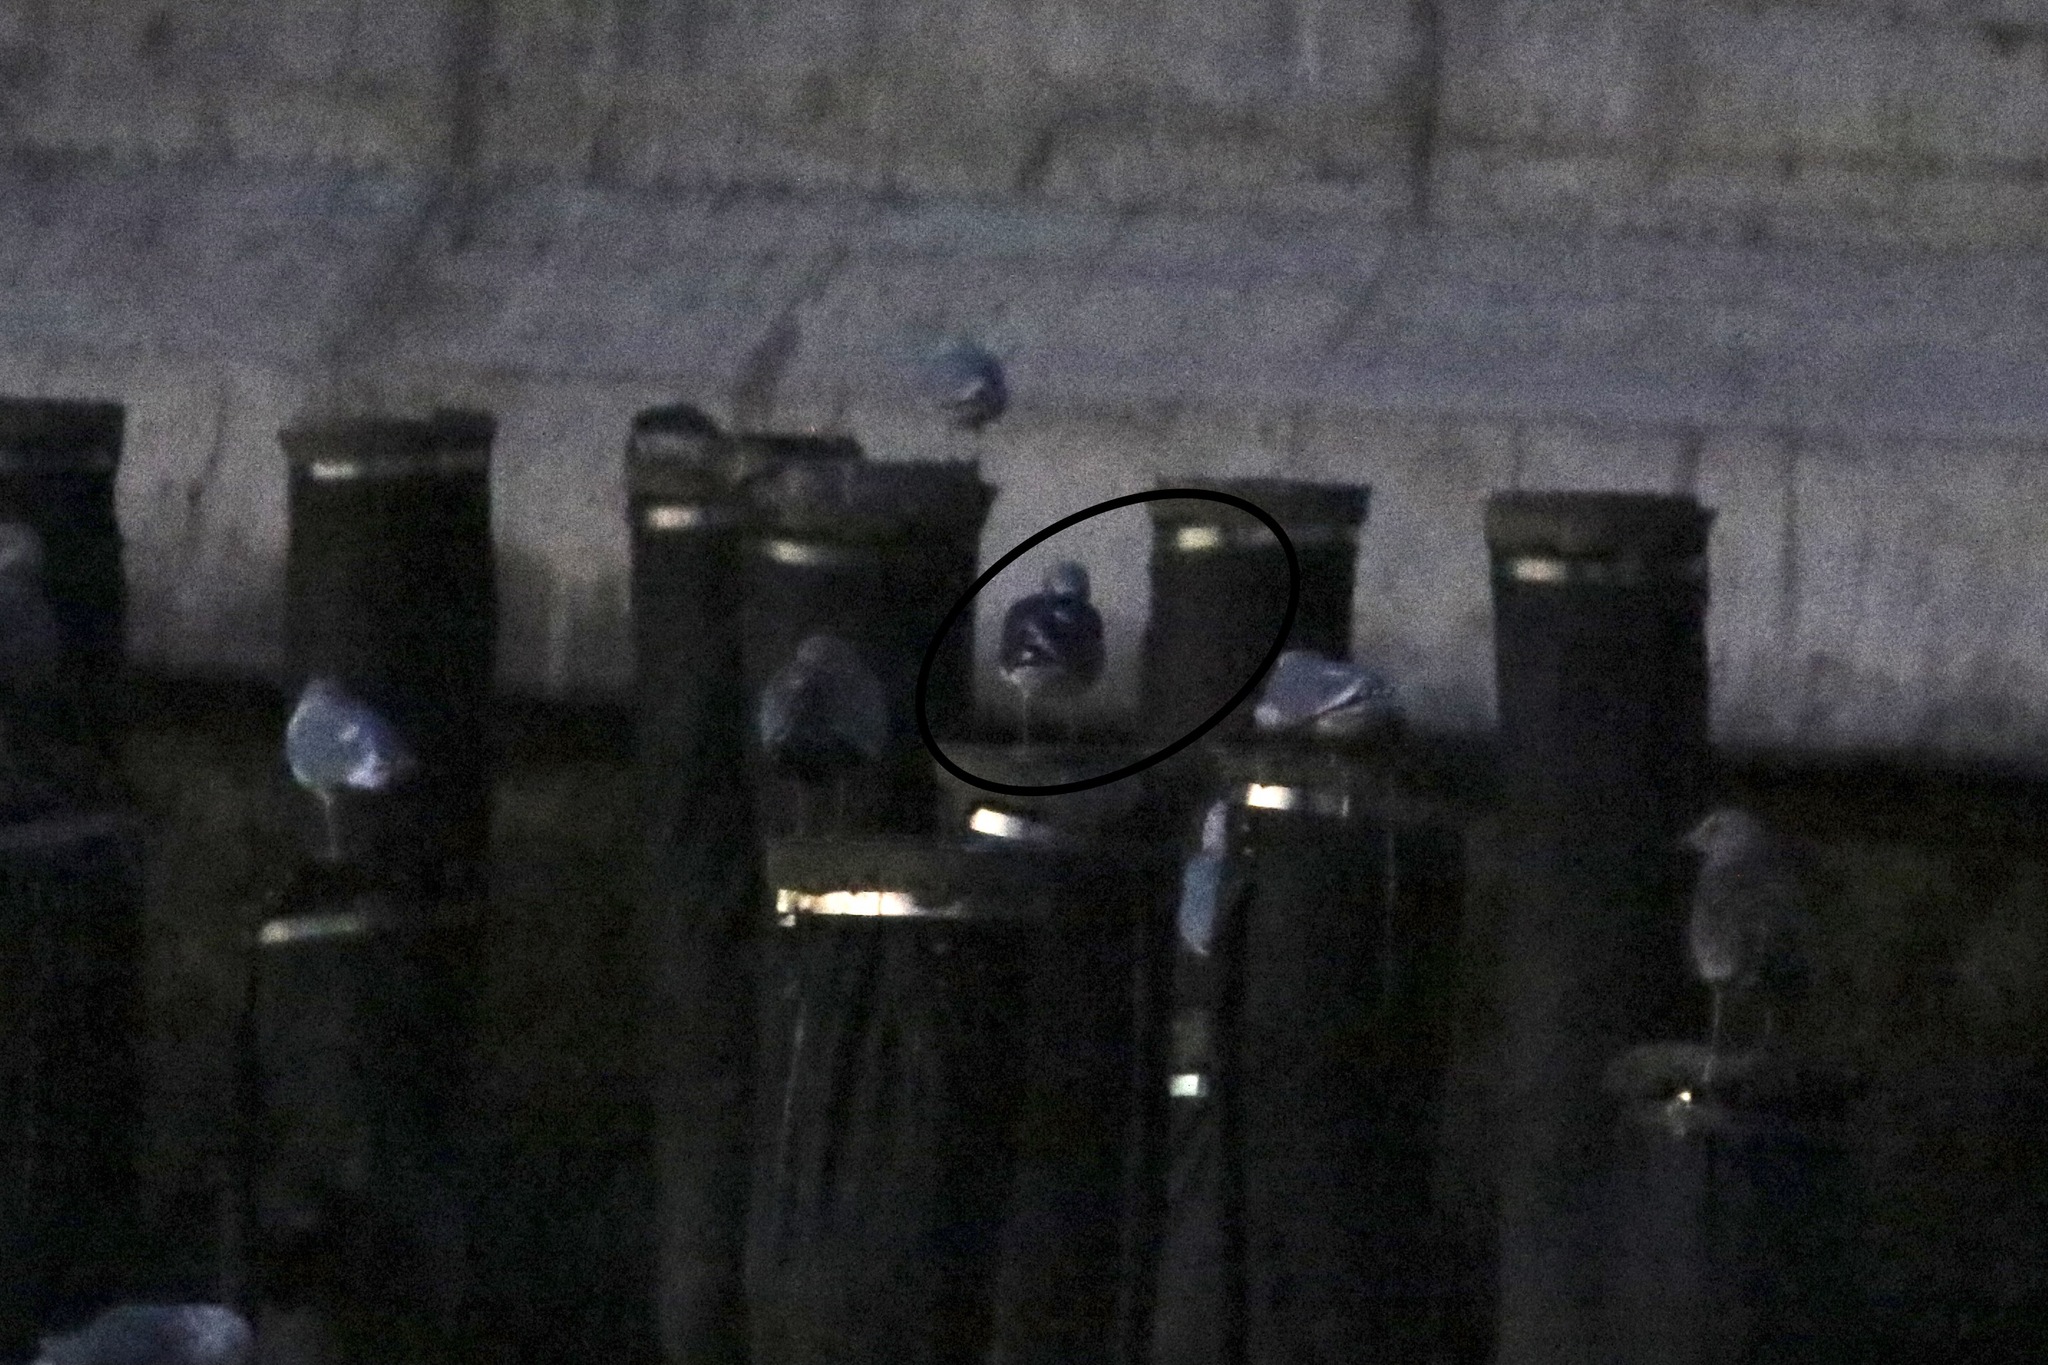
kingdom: Animalia
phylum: Chordata
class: Aves
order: Charadriiformes
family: Laridae
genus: Larus
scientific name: Larus fuscus
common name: Lesser black-backed gull
